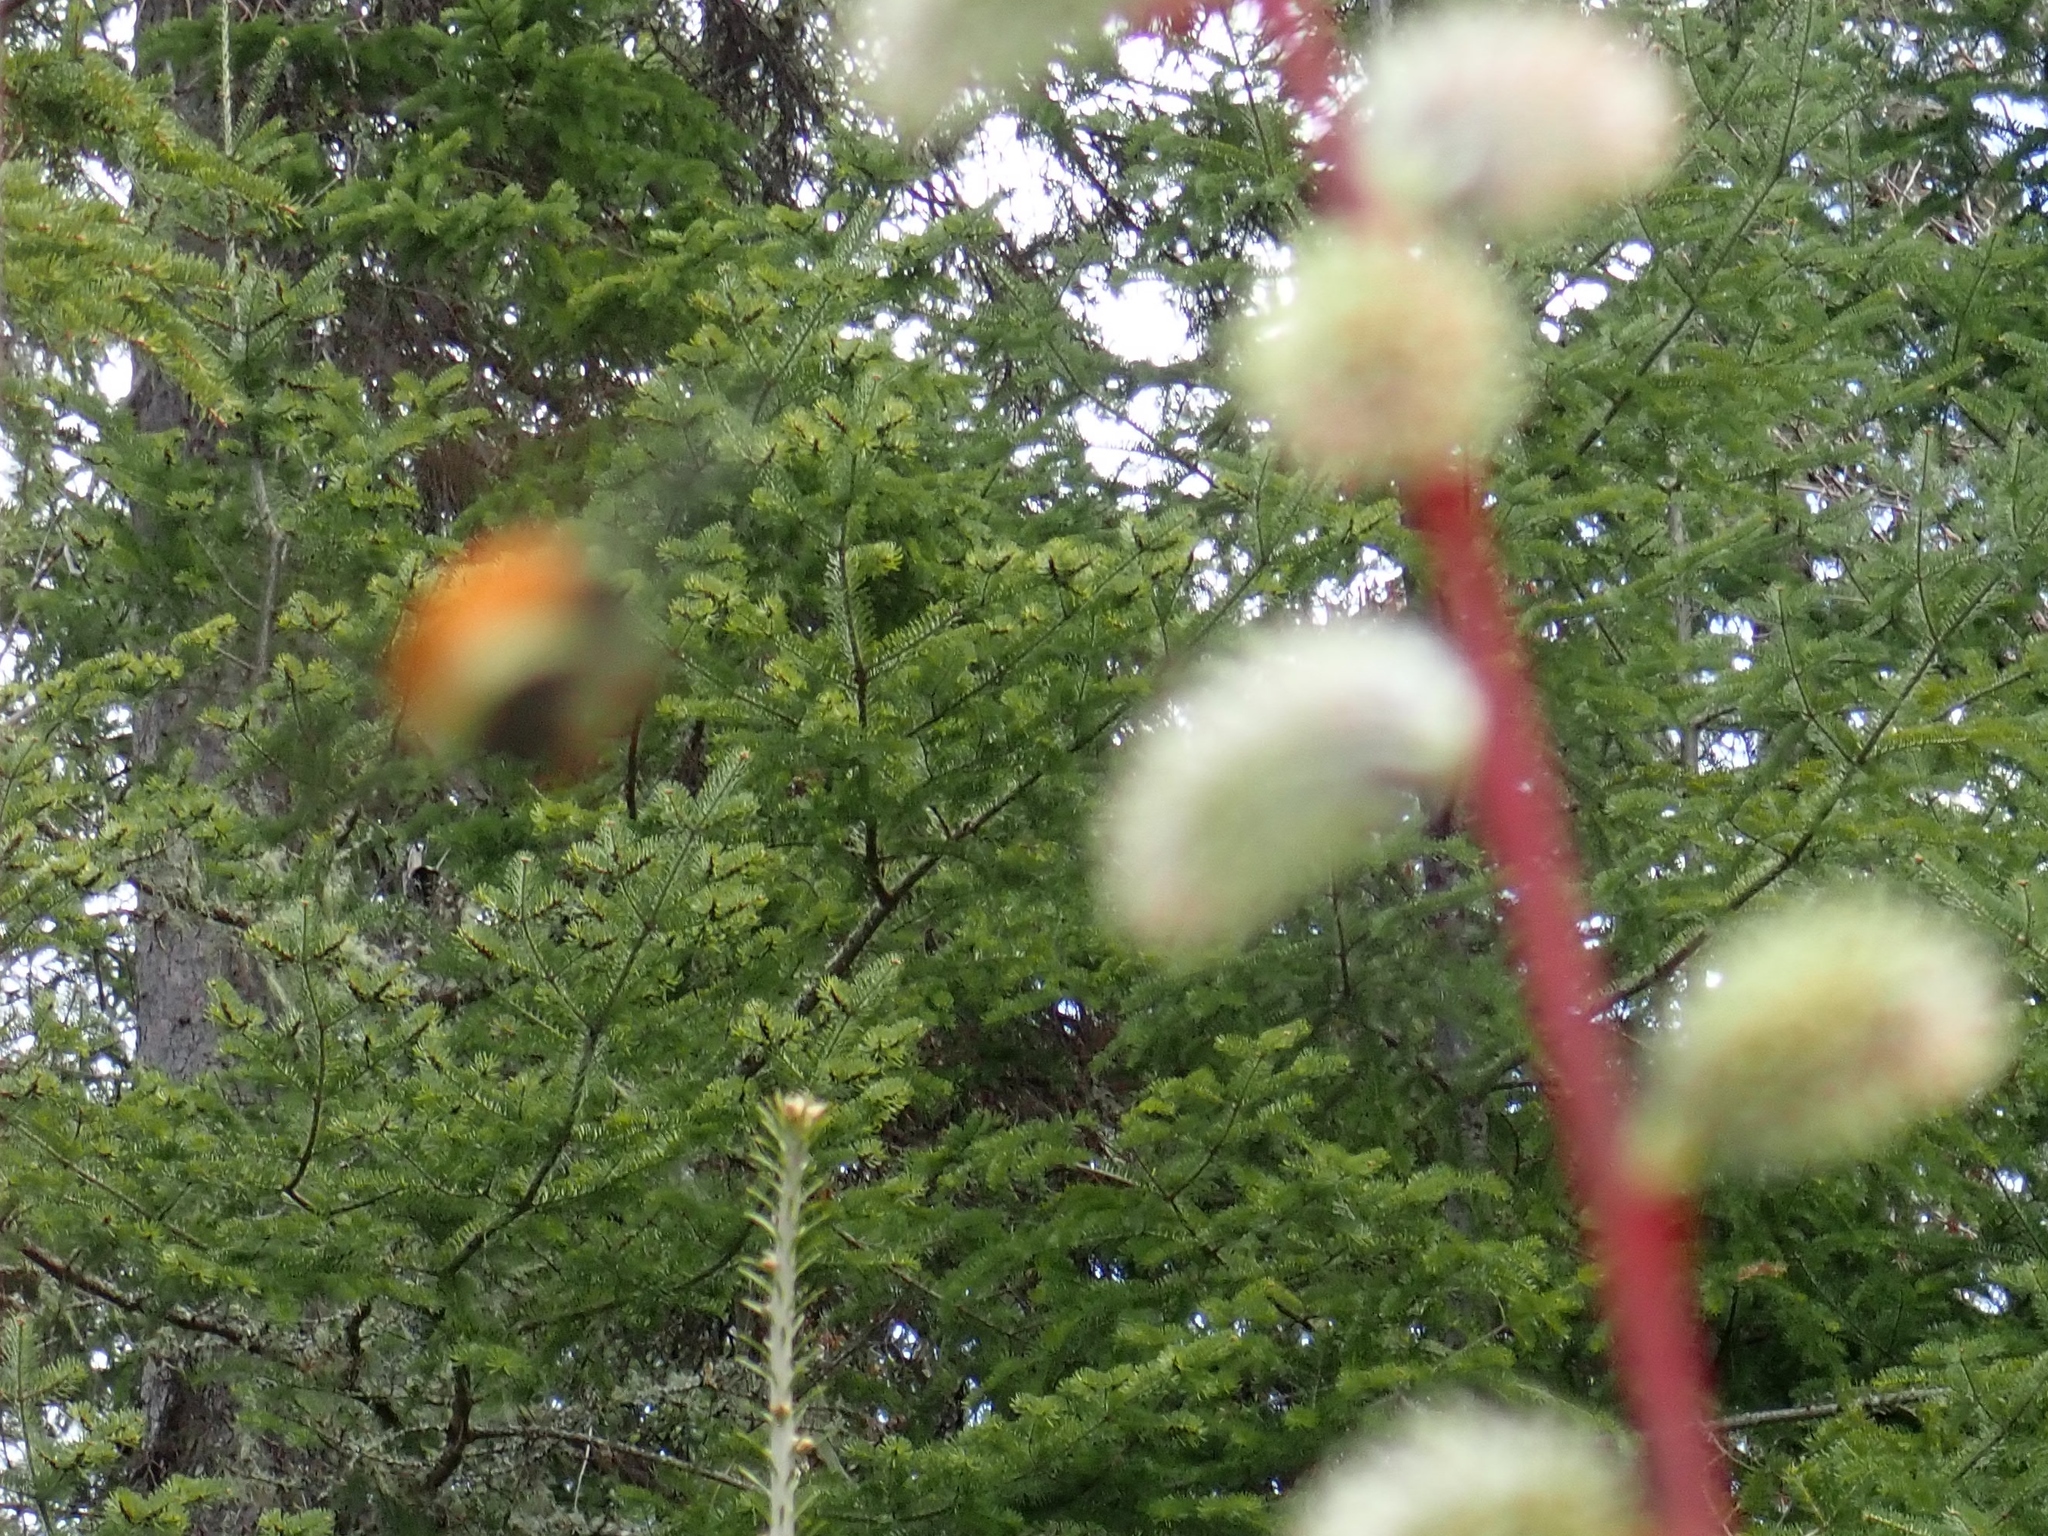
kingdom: Animalia
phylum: Arthropoda
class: Insecta
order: Hymenoptera
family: Apidae
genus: Bombus
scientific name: Bombus ternarius
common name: Tri-colored bumble bee
